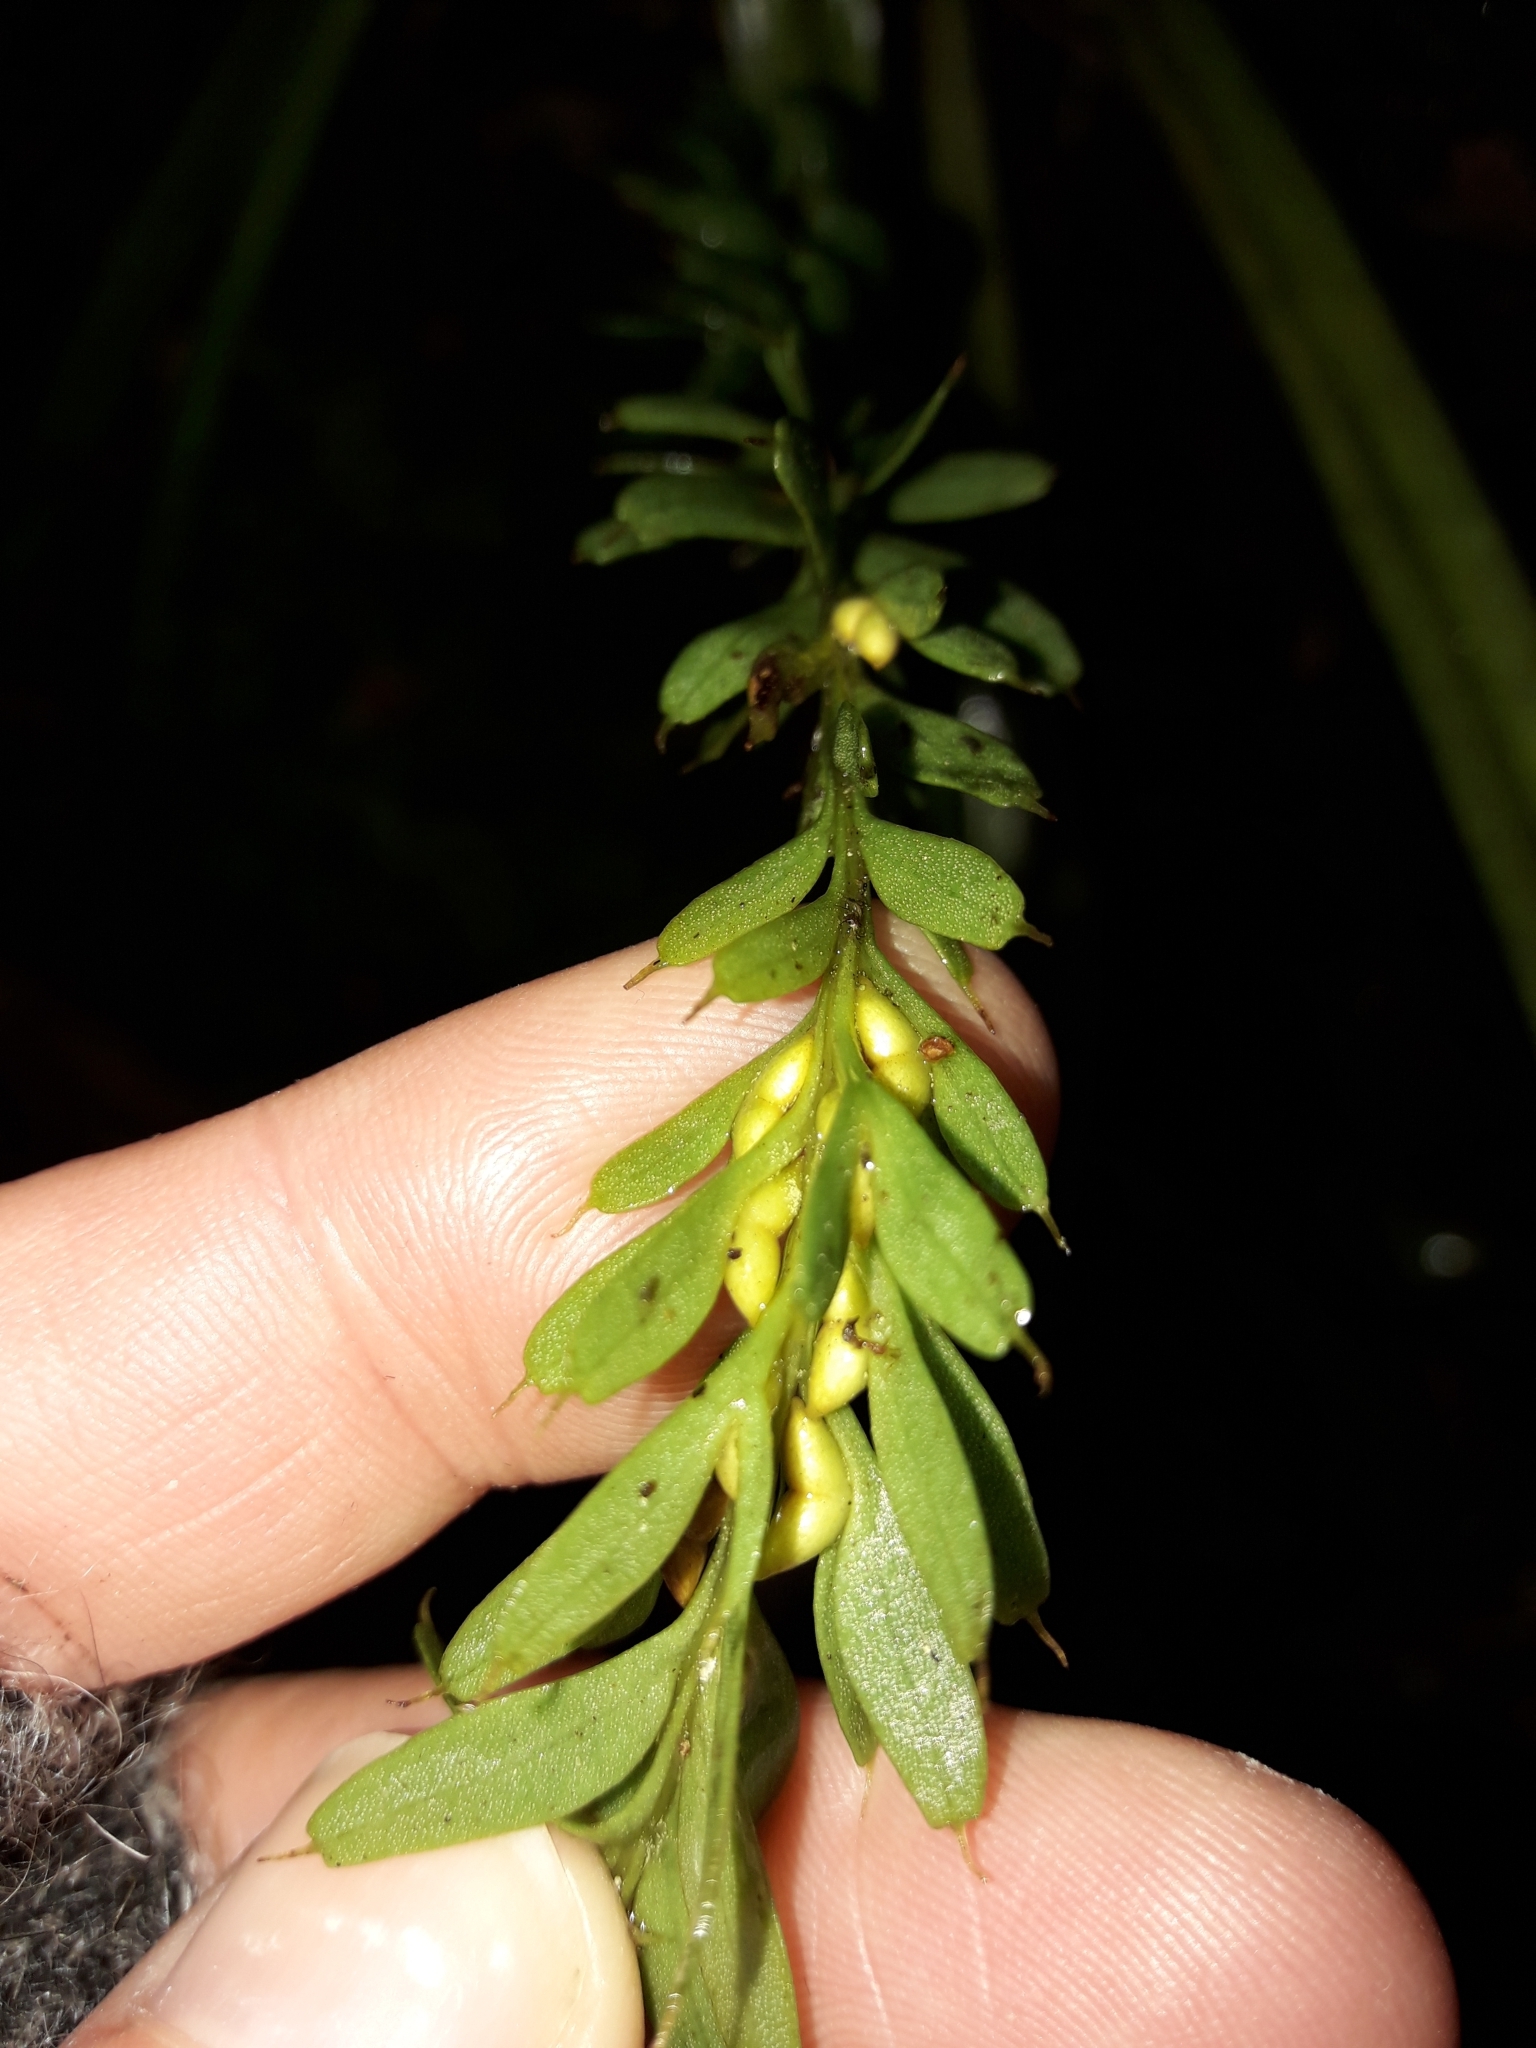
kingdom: Plantae
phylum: Tracheophyta
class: Polypodiopsida
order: Psilotales
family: Psilotaceae
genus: Tmesipteris
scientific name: Tmesipteris tannensis
